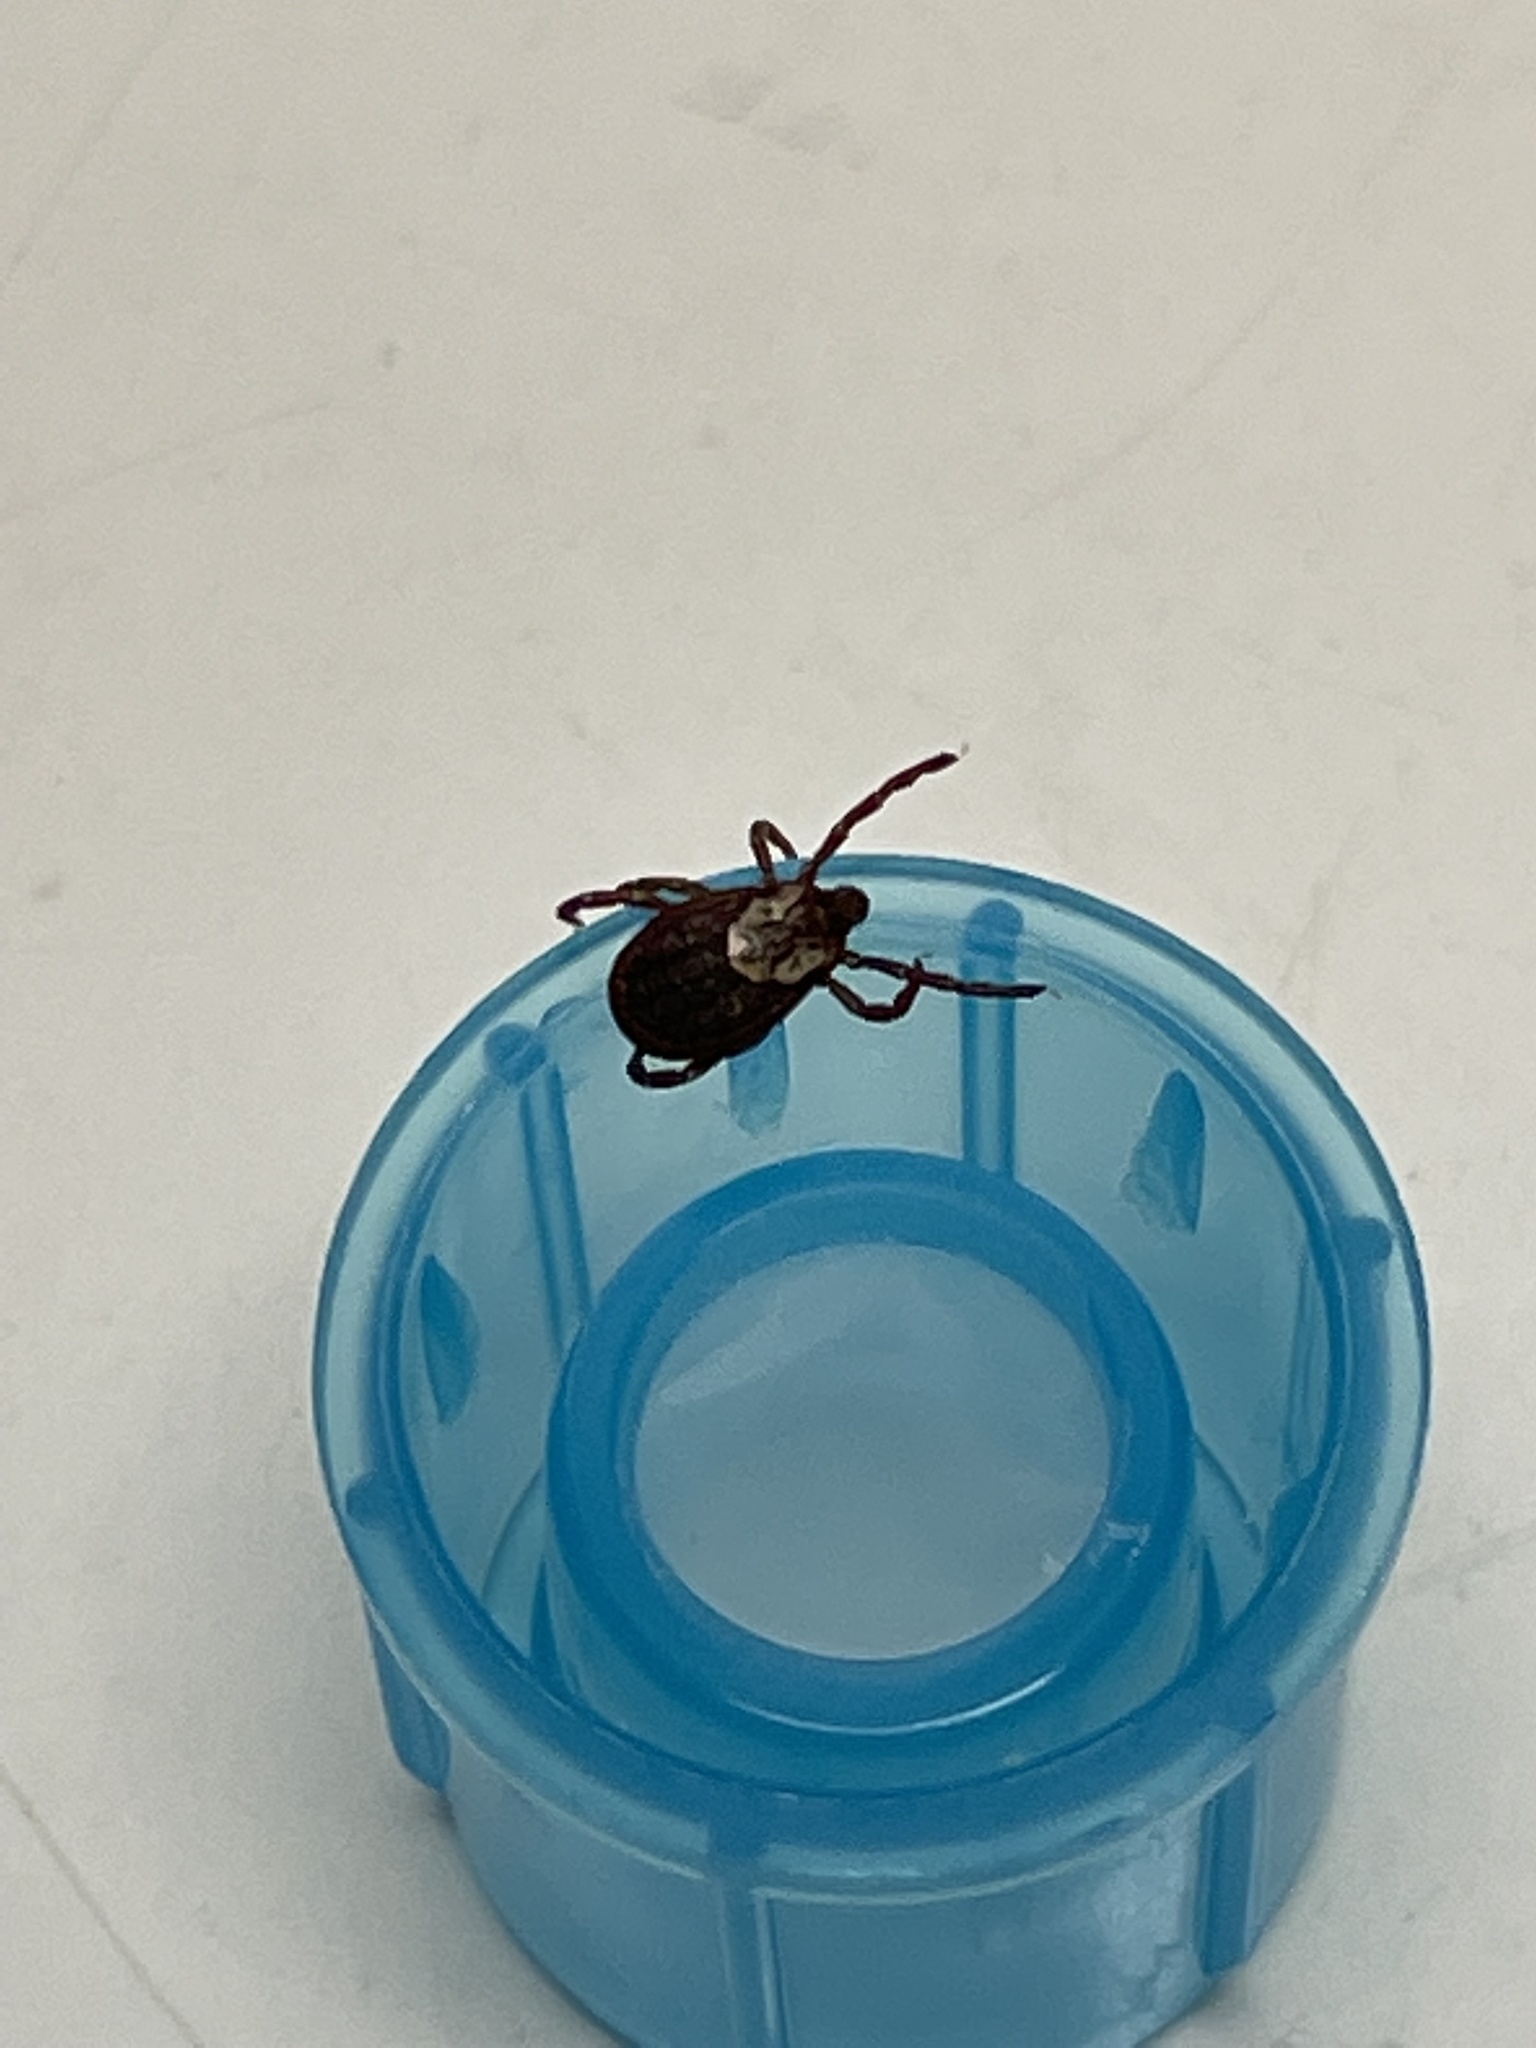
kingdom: Animalia
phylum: Arthropoda
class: Arachnida
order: Ixodida
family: Ixodidae
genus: Dermacentor
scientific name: Dermacentor variabilis
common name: American dog tick
